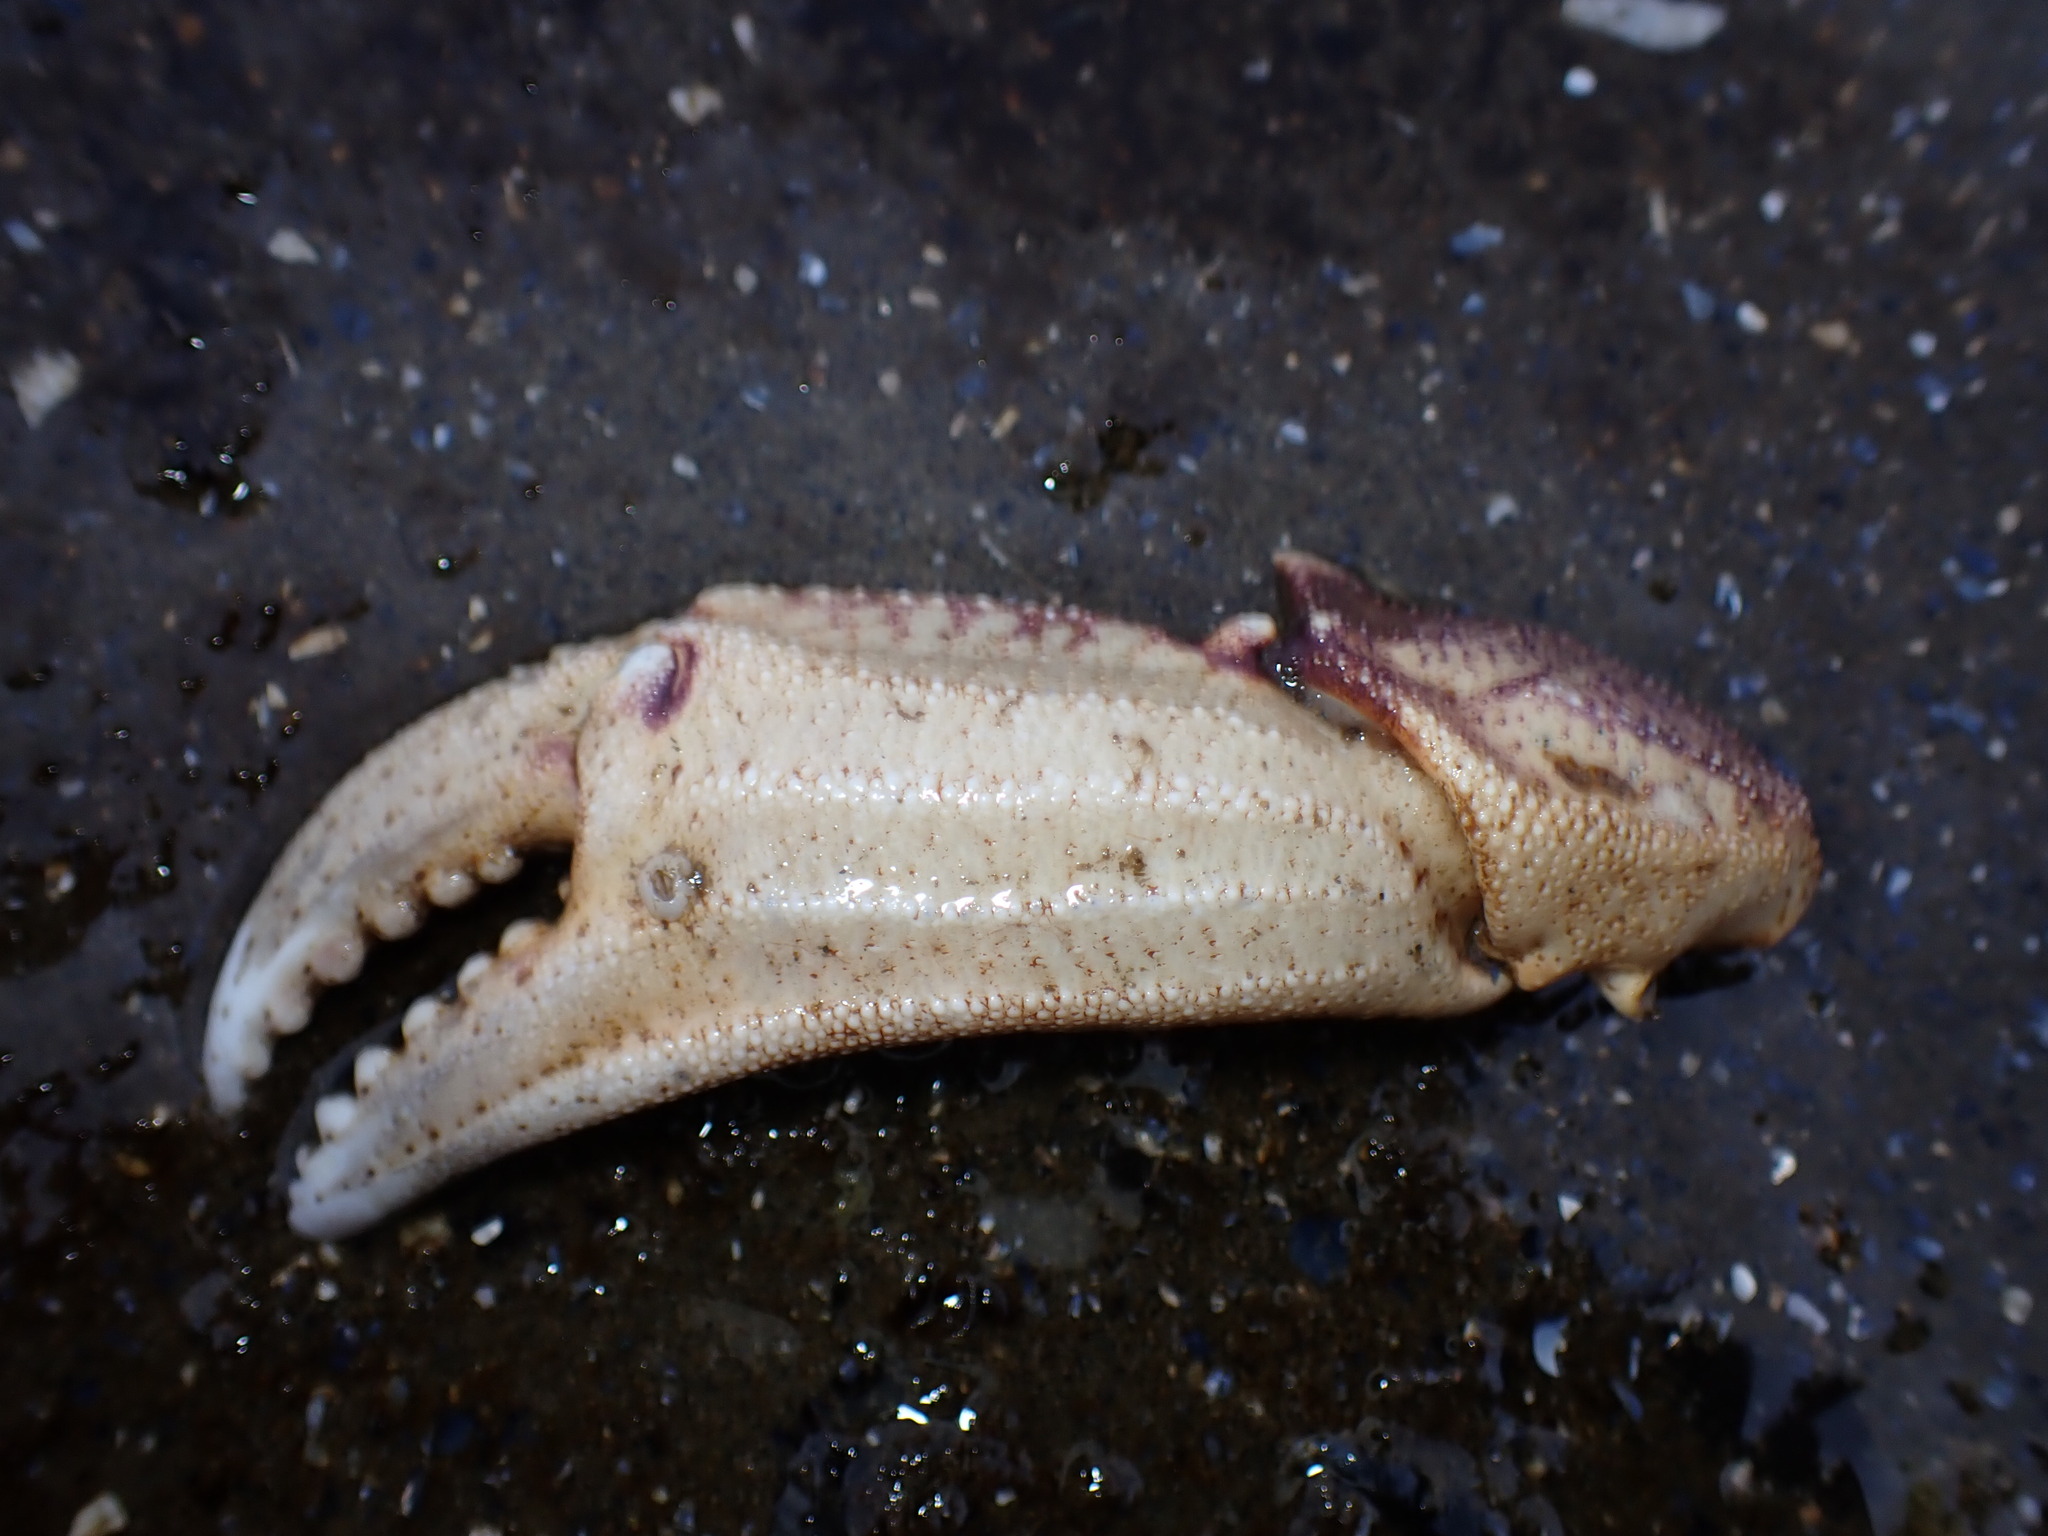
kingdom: Animalia
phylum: Arthropoda
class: Malacostraca
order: Decapoda
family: Cancridae
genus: Metacarcinus
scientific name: Metacarcinus magister
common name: Californian crab
